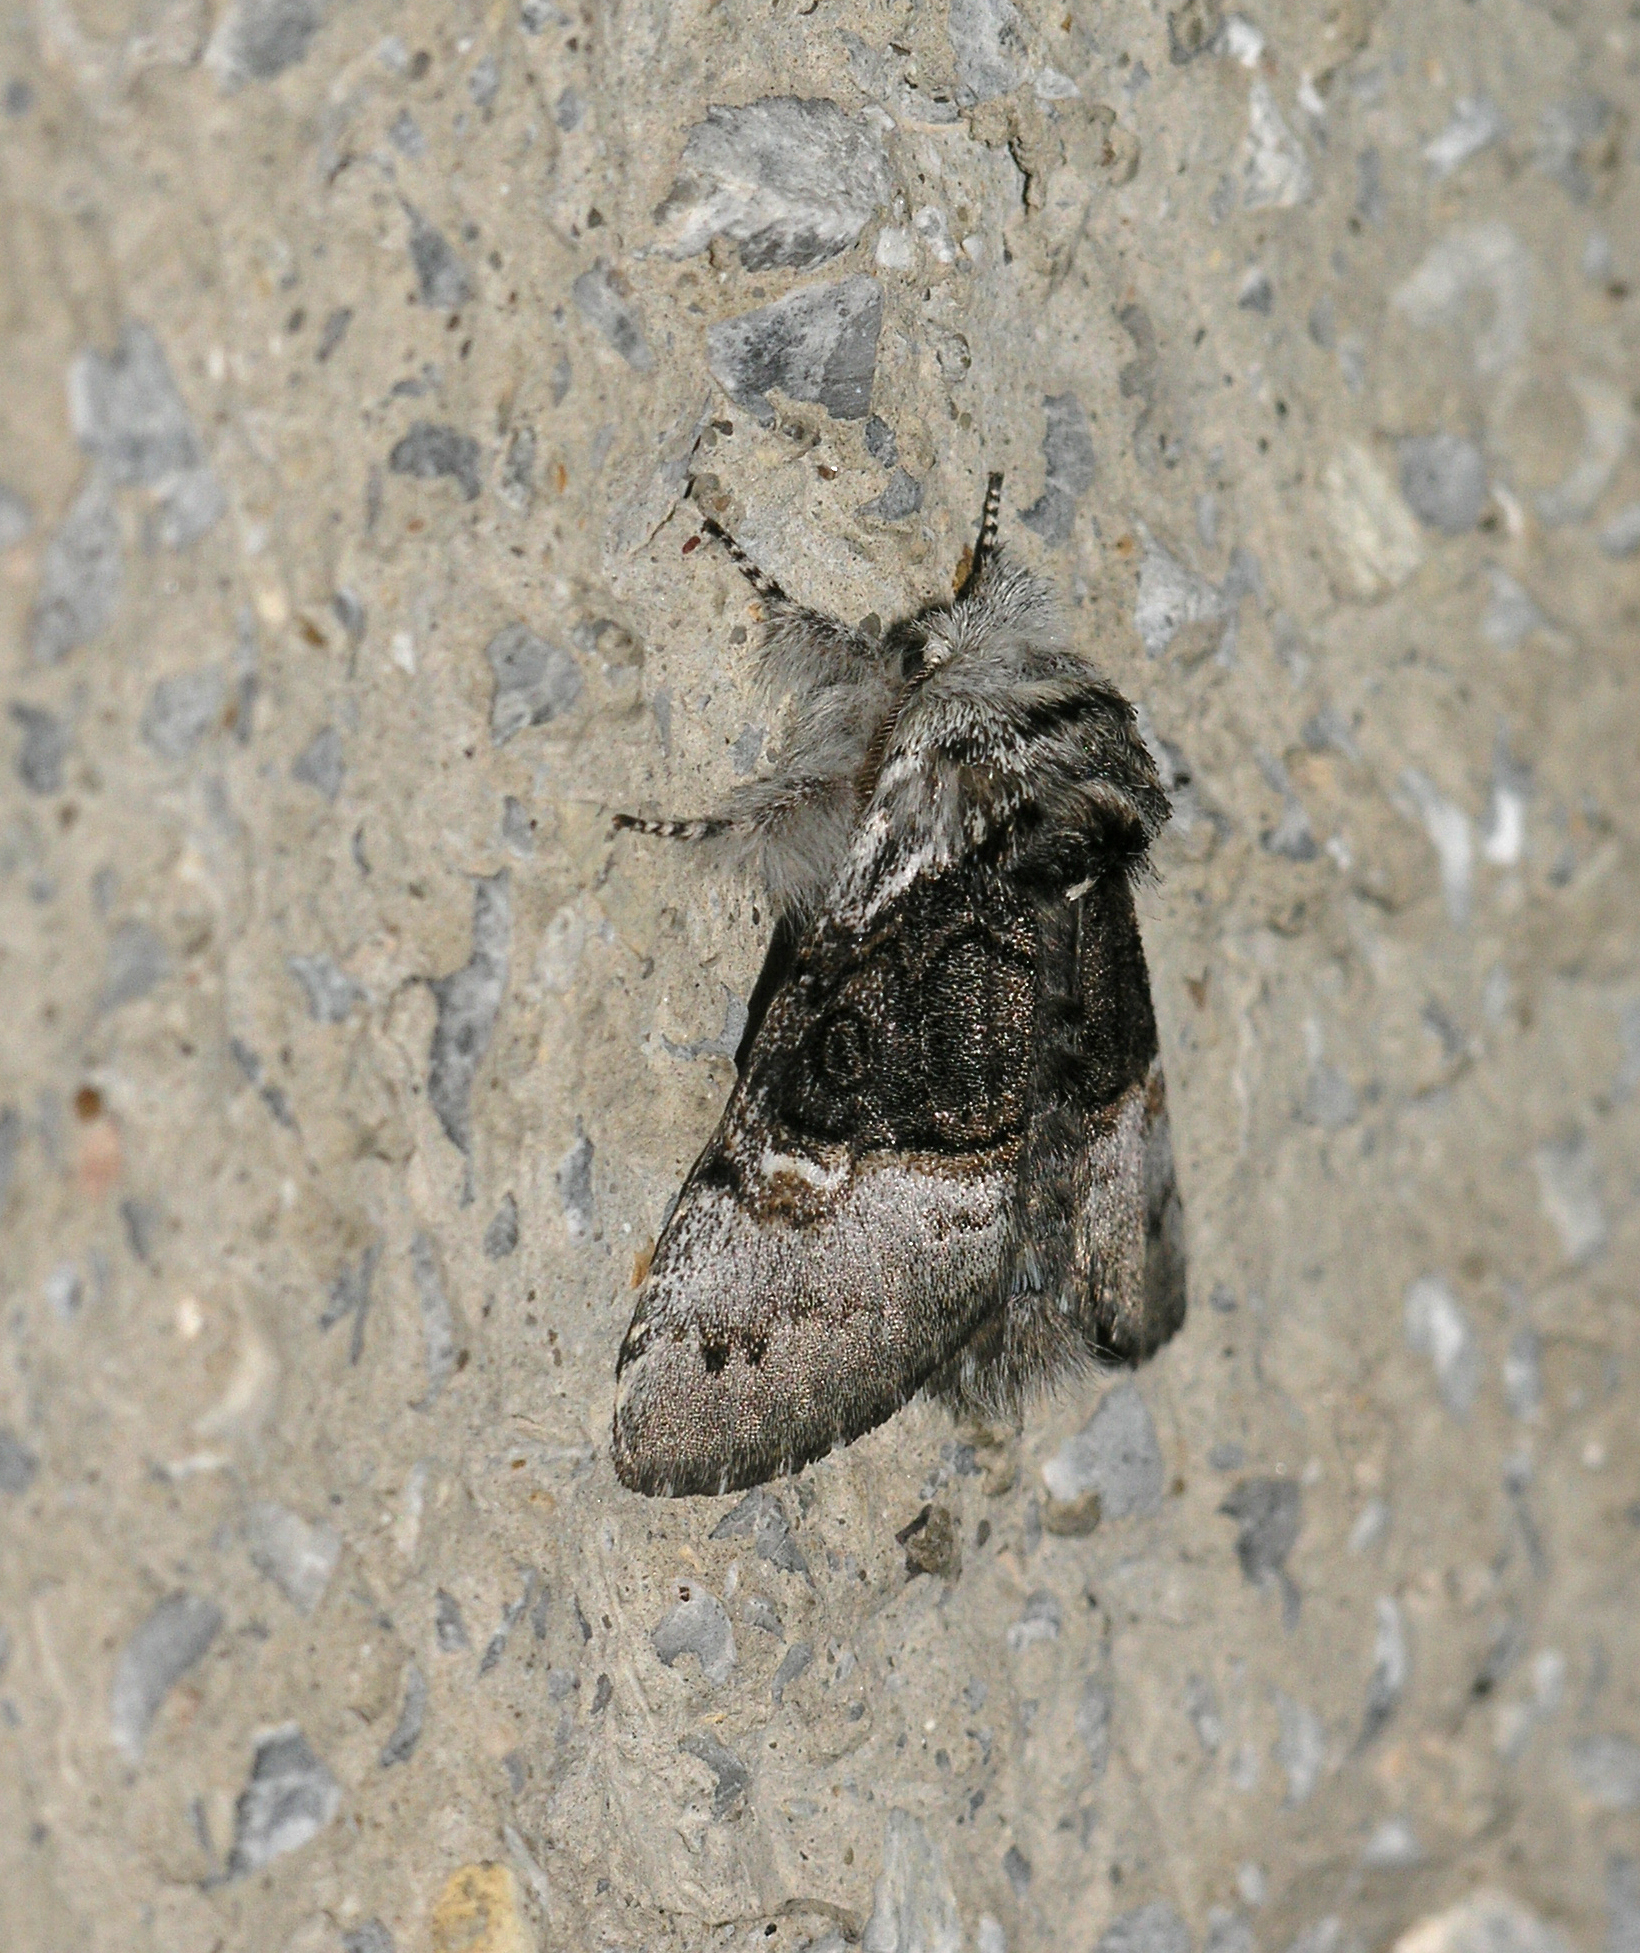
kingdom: Animalia
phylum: Arthropoda
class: Insecta
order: Lepidoptera
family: Noctuidae
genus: Colocasia
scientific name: Colocasia coryli
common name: Nut-tree tussock
